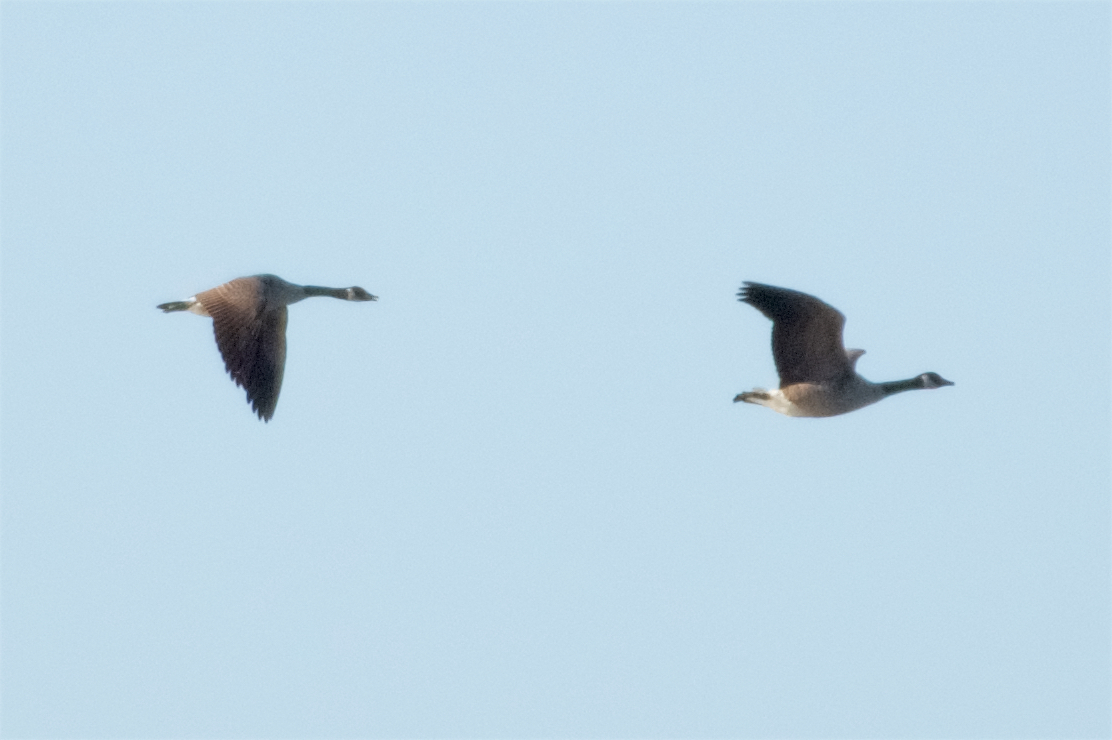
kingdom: Animalia
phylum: Chordata
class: Aves
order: Anseriformes
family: Anatidae
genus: Branta
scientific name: Branta canadensis
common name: Canada goose
